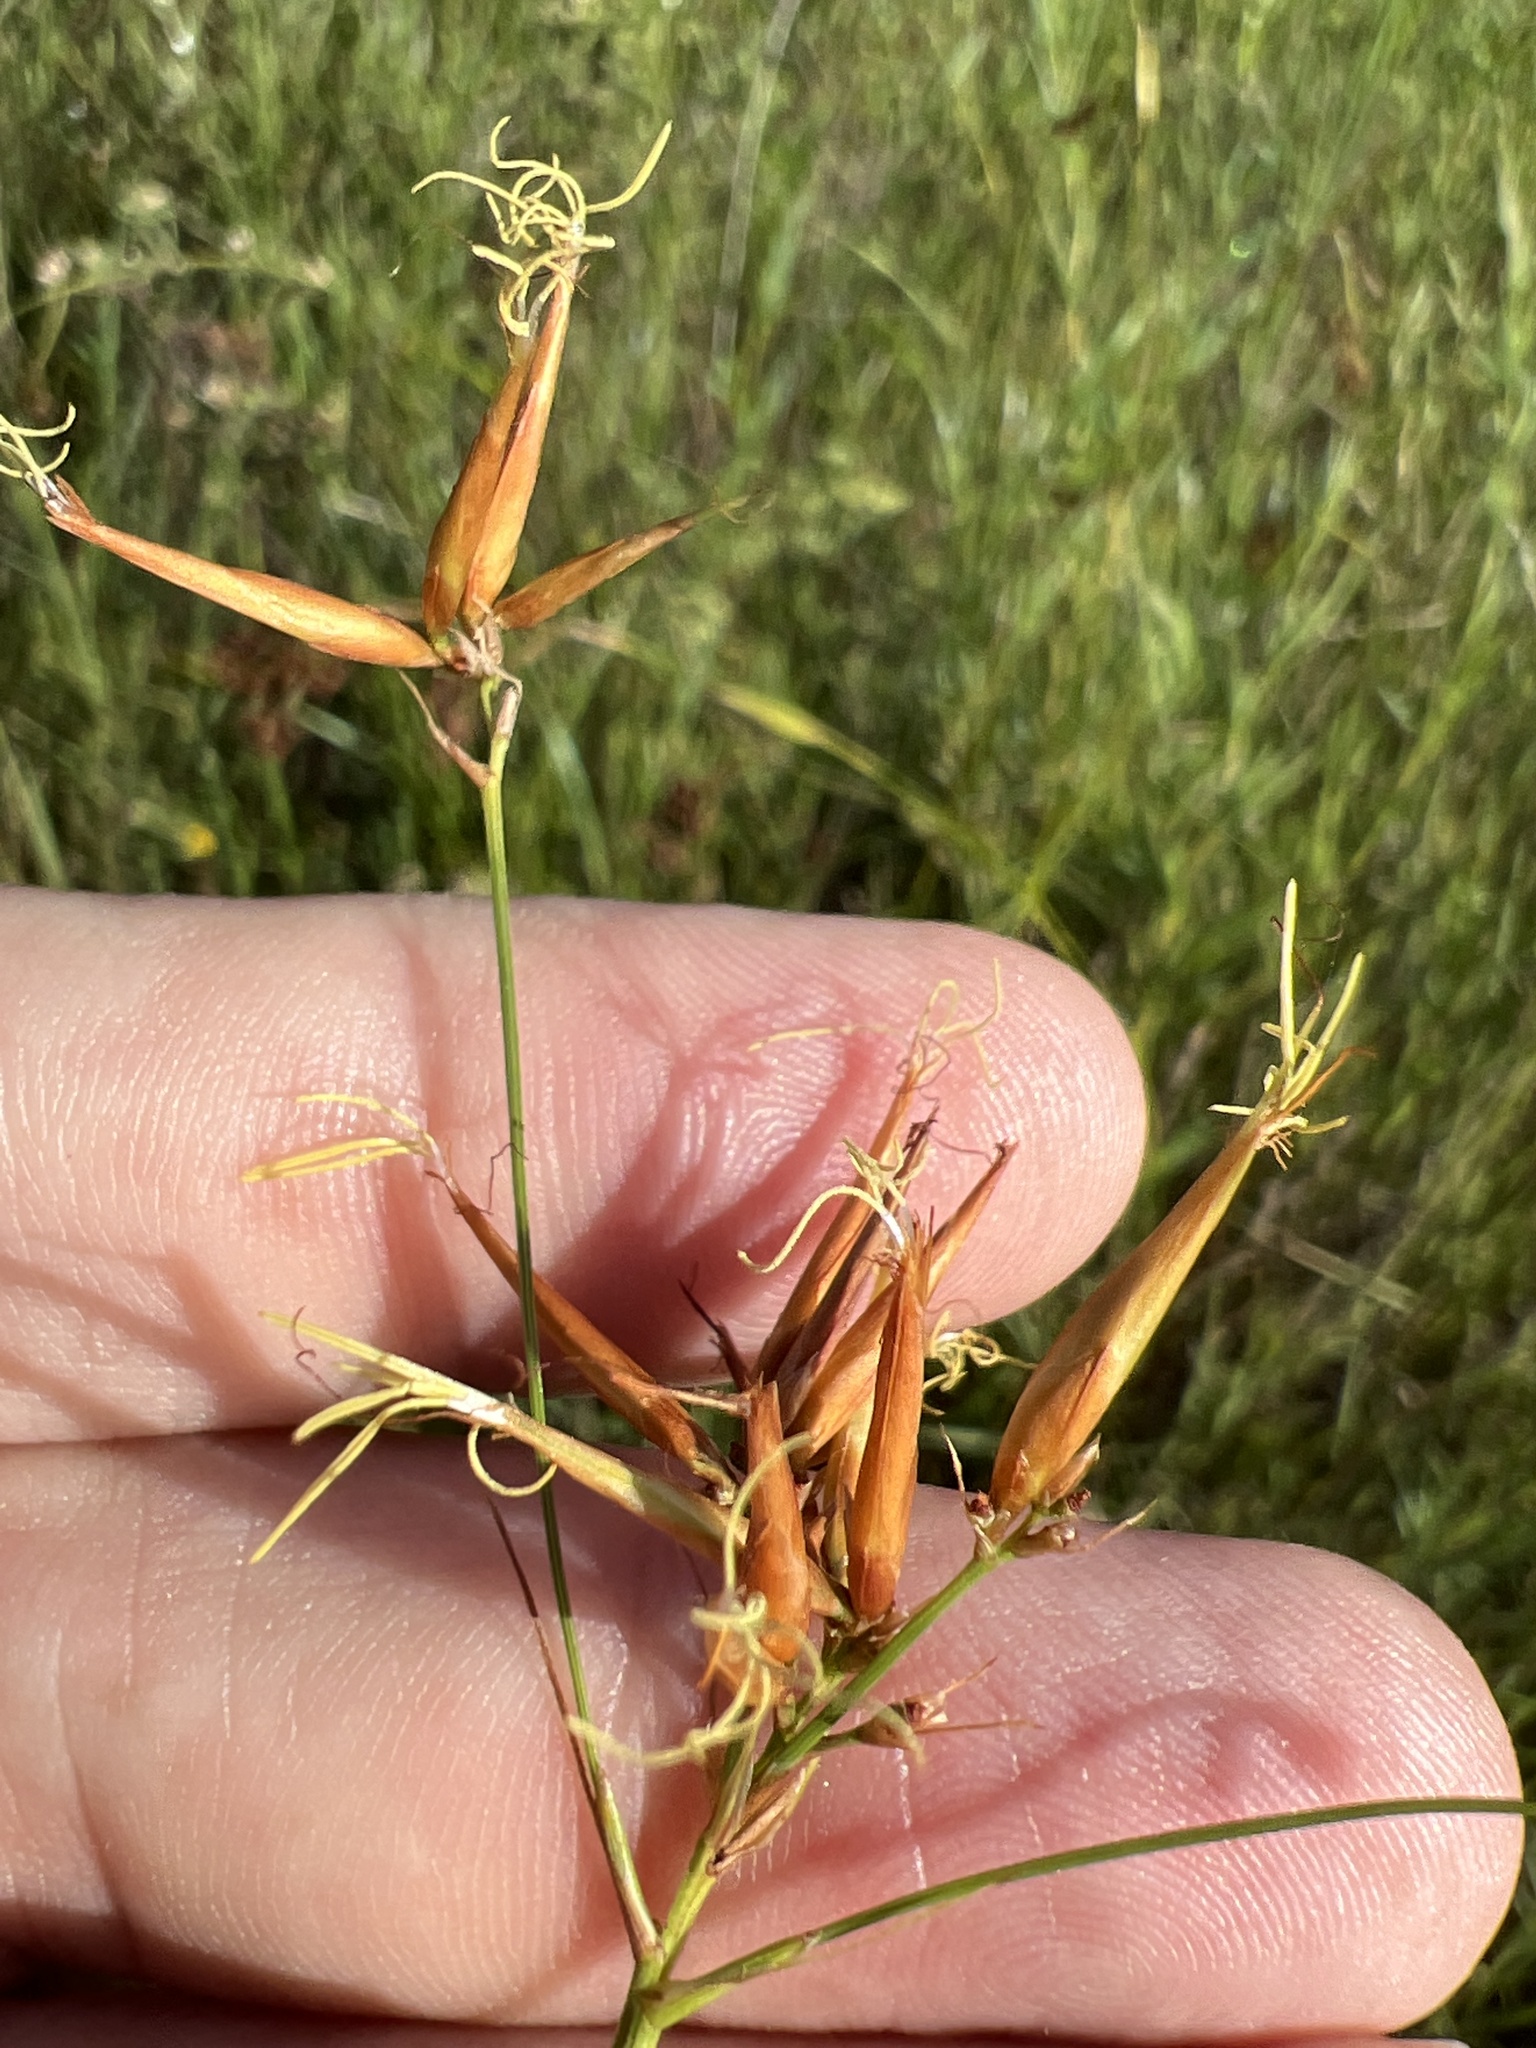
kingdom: Plantae
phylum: Tracheophyta
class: Liliopsida
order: Poales
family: Cyperaceae
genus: Rhynchospora
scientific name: Rhynchospora corniculata
